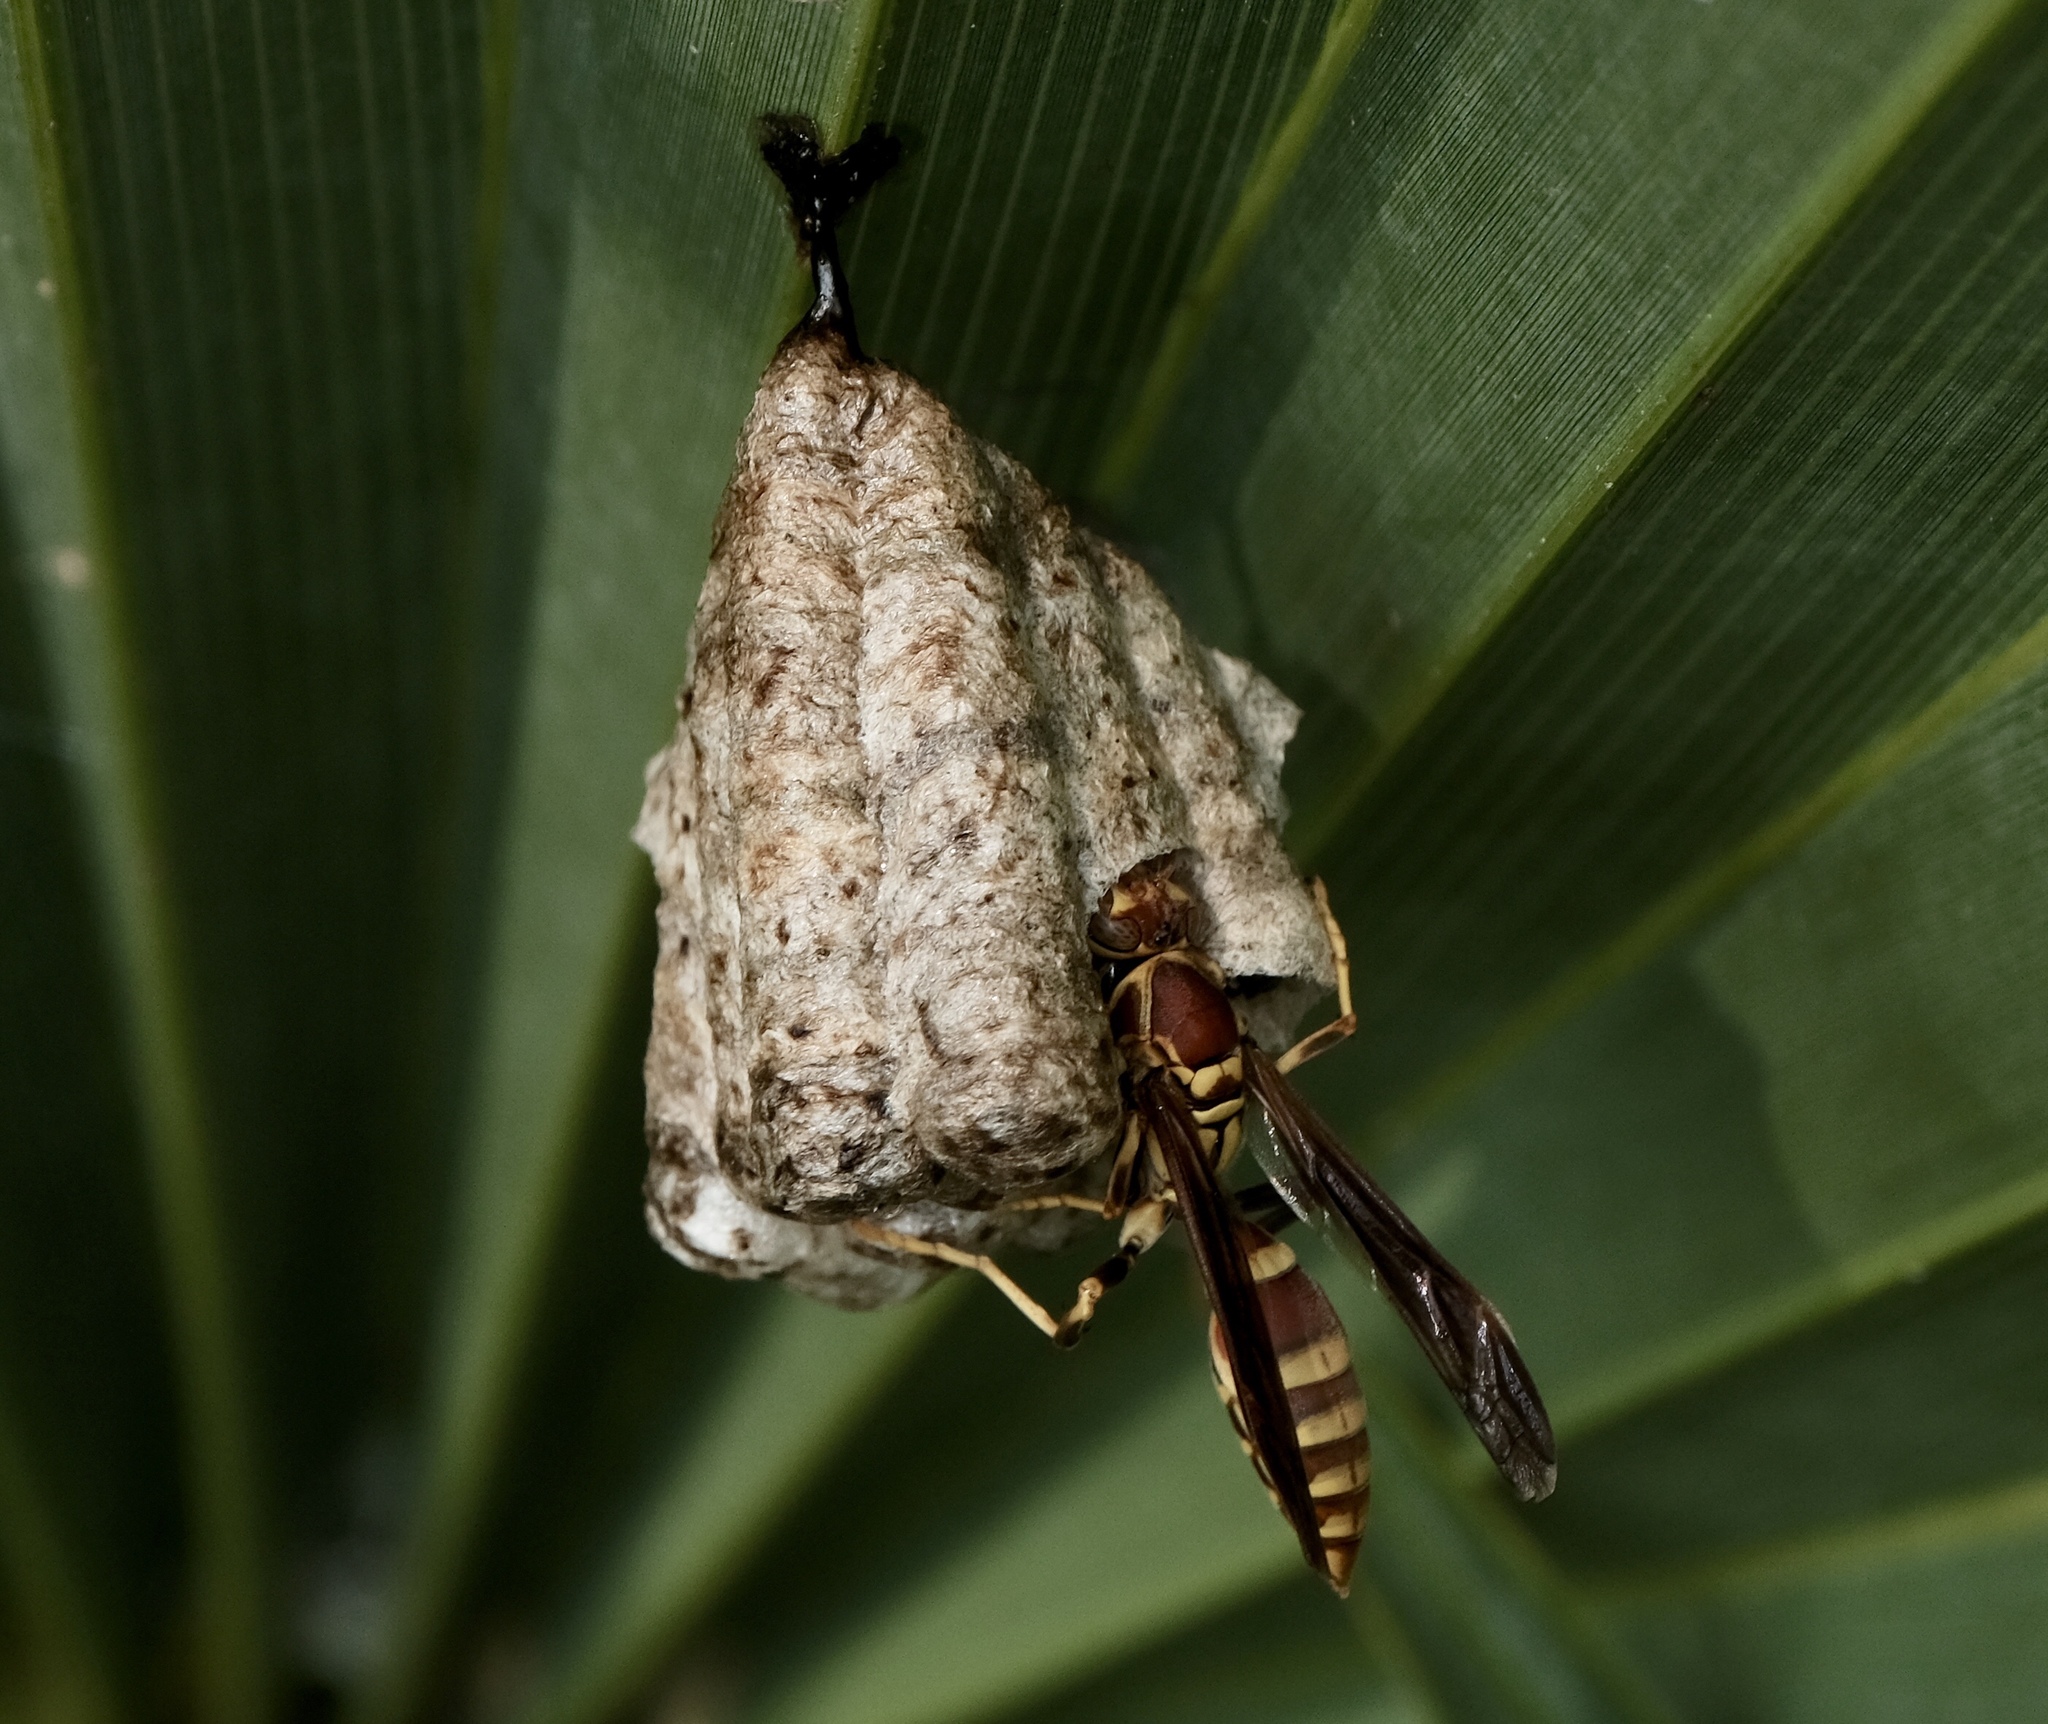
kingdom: Animalia
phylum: Arthropoda
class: Insecta
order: Hymenoptera
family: Eumenidae
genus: Polistes
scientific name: Polistes exclamans
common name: Paper wasp
